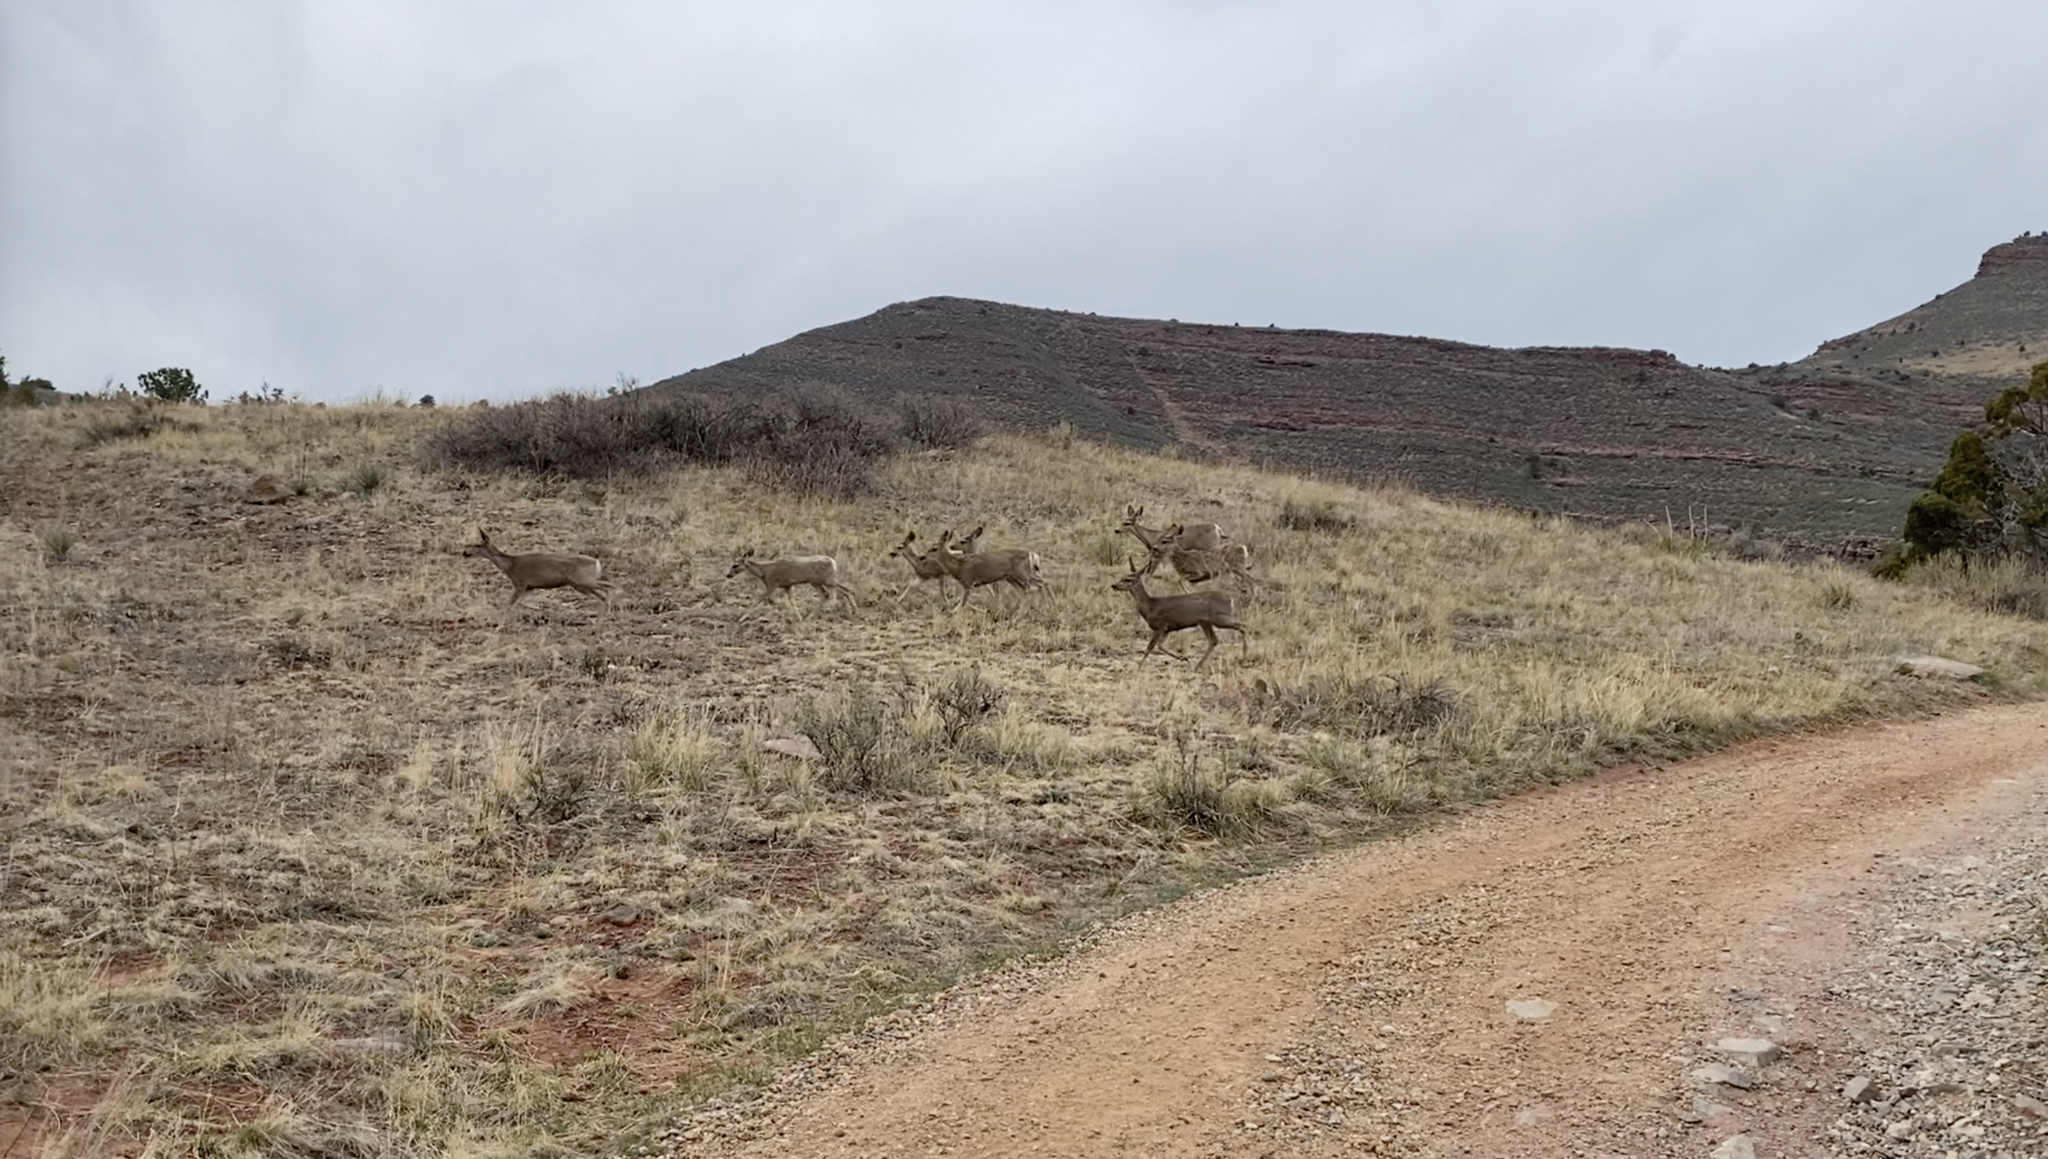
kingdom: Animalia
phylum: Chordata
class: Mammalia
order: Artiodactyla
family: Cervidae
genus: Odocoileus
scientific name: Odocoileus hemionus
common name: Mule deer
